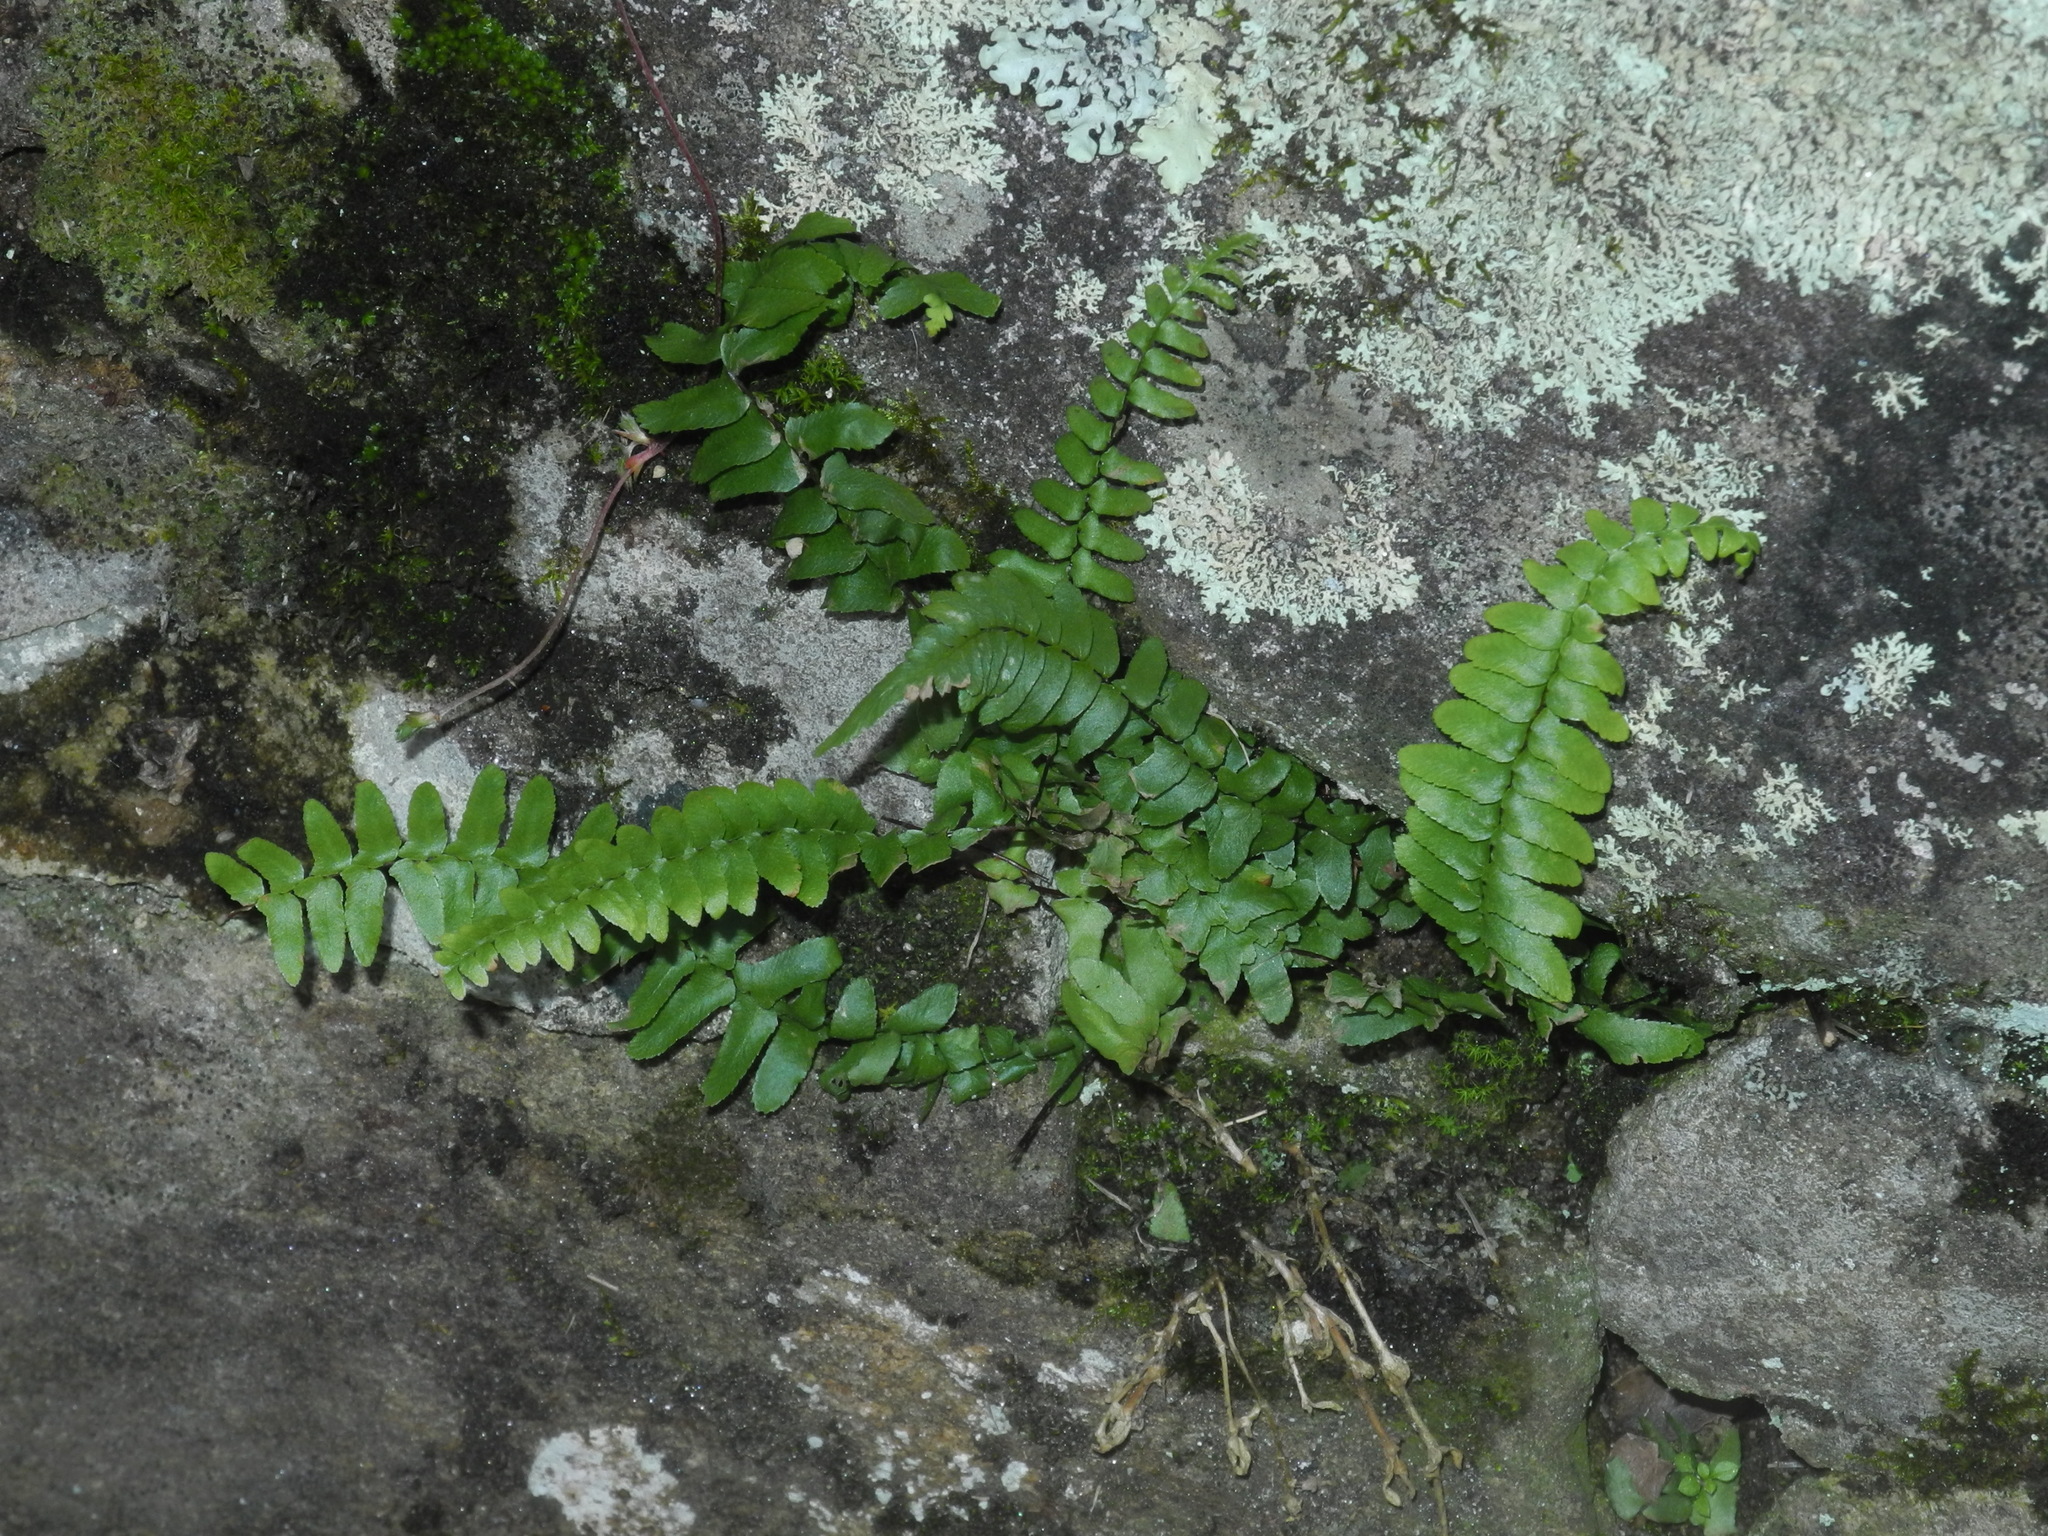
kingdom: Plantae
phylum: Tracheophyta
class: Polypodiopsida
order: Polypodiales
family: Aspleniaceae
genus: Asplenium
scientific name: Asplenium platyneuron
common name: Ebony spleenwort
